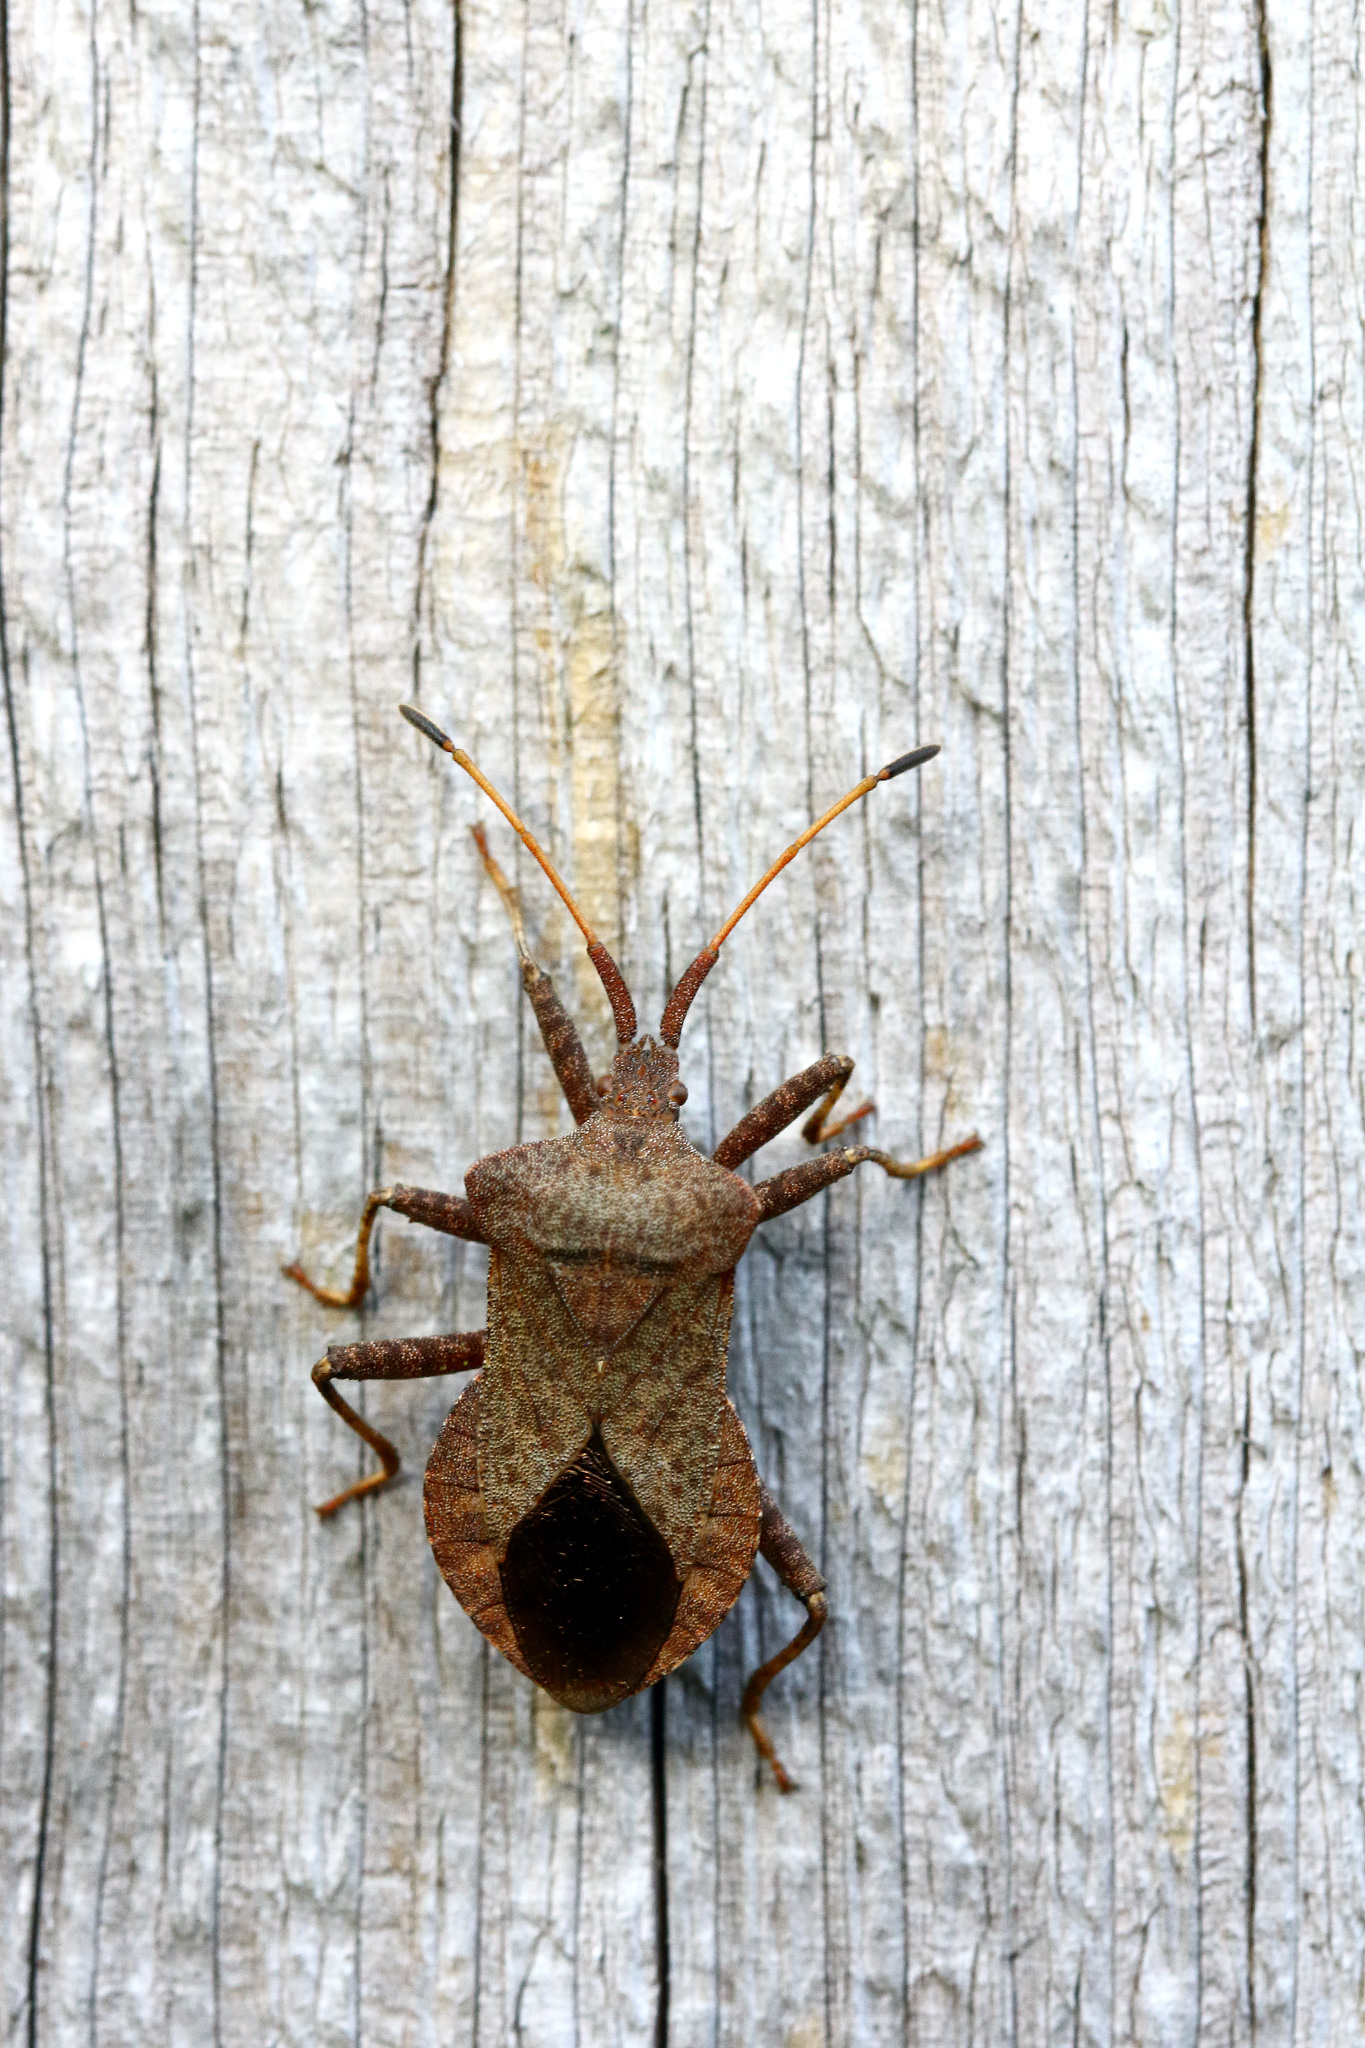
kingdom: Animalia
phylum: Arthropoda
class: Insecta
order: Hemiptera
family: Coreidae
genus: Coreus
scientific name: Coreus marginatus
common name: Dock bug
